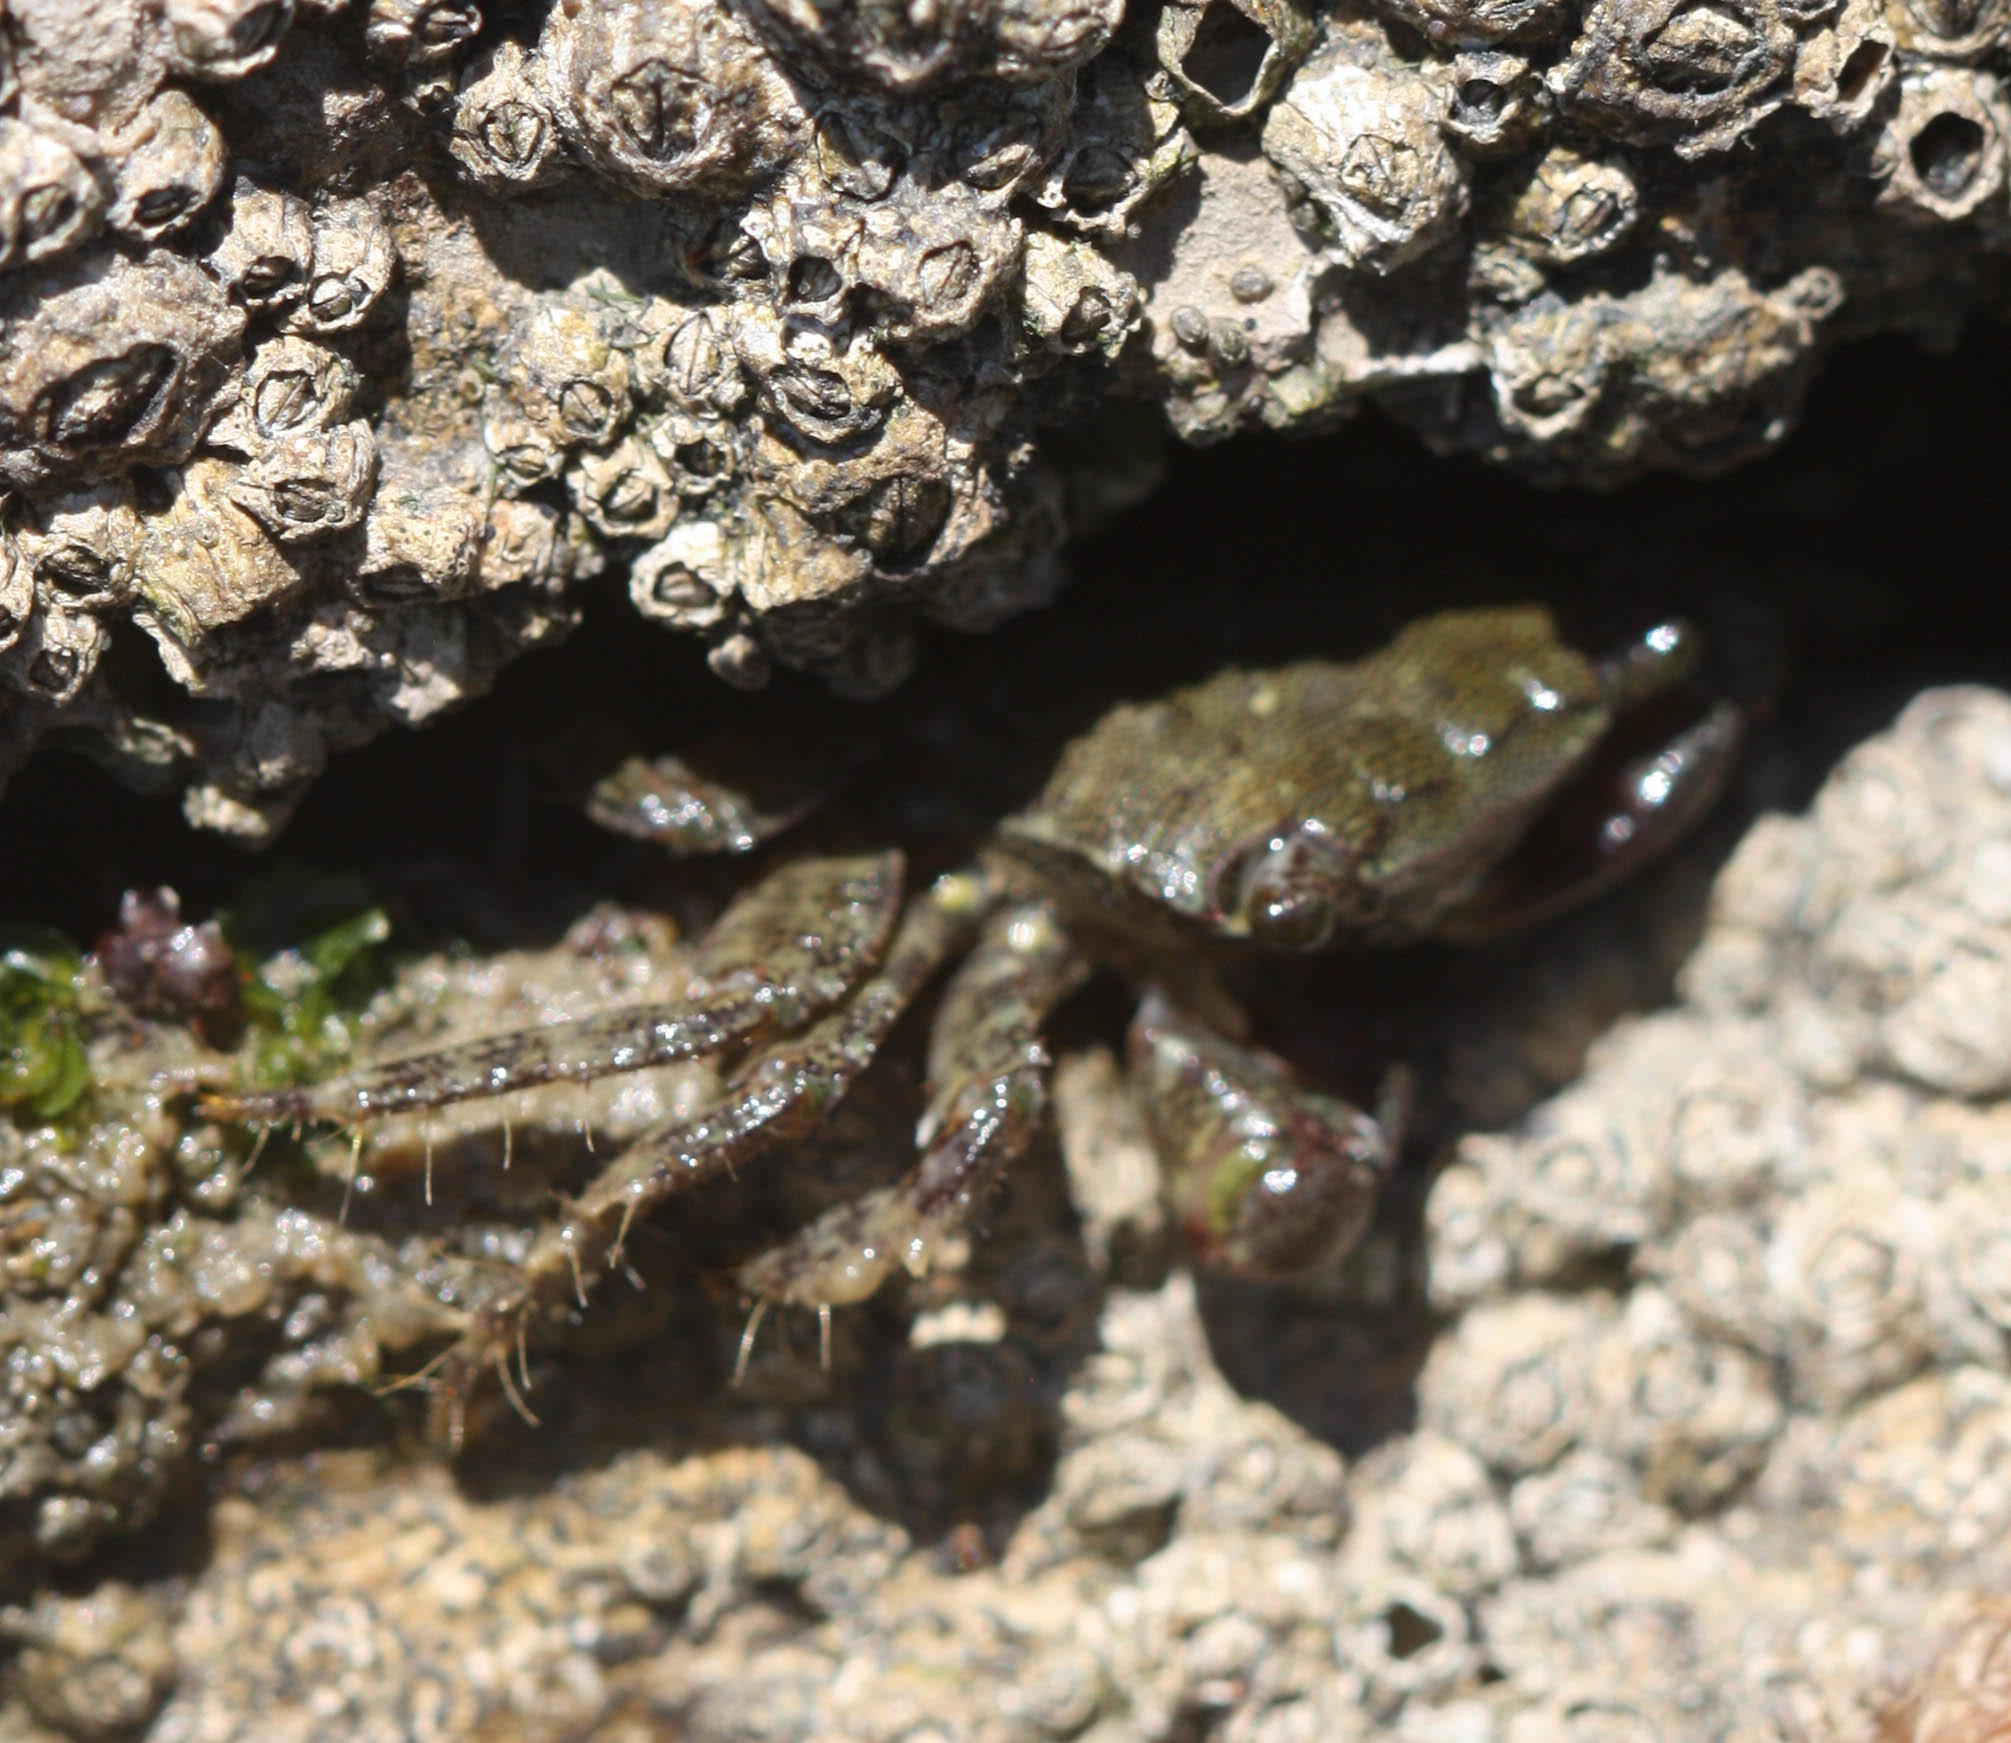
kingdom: Animalia
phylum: Arthropoda
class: Malacostraca
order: Decapoda
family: Grapsidae
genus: Pachygrapsus
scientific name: Pachygrapsus marmoratus
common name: Marbled rock crab
